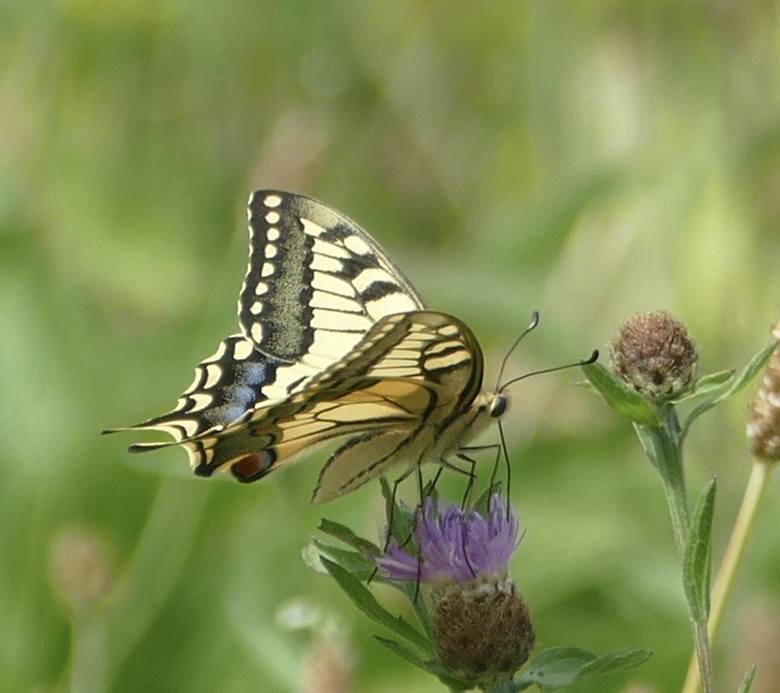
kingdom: Animalia
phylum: Arthropoda
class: Insecta
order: Lepidoptera
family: Papilionidae
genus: Papilio
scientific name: Papilio machaon
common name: Swallowtail
